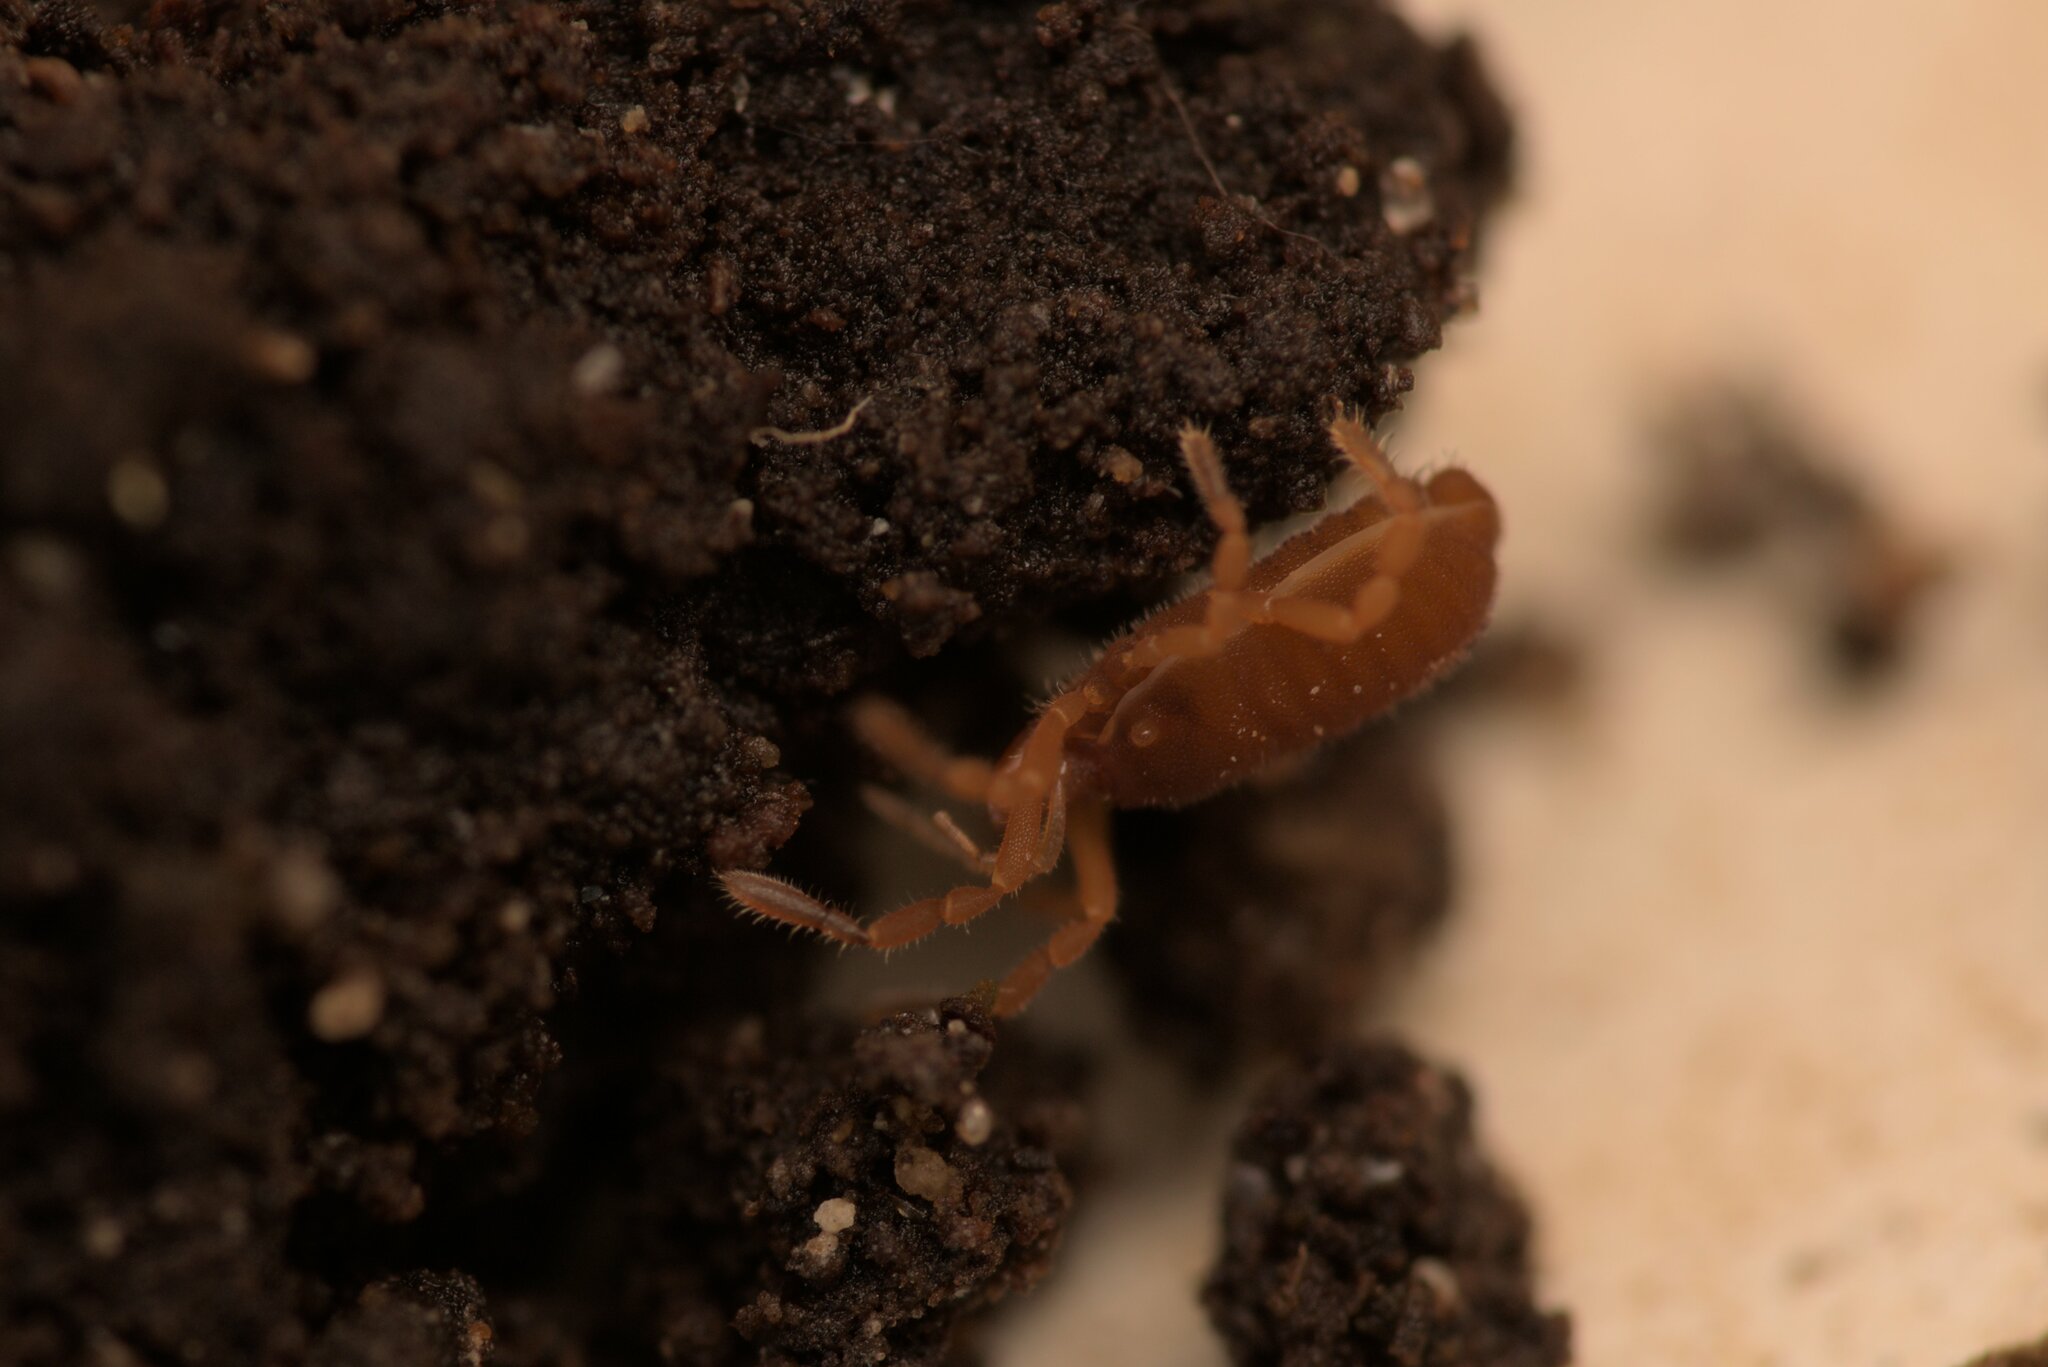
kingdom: Animalia
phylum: Arthropoda
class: Arachnida
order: Opiliones
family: Sironidae
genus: Siro
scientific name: Siro rubens
